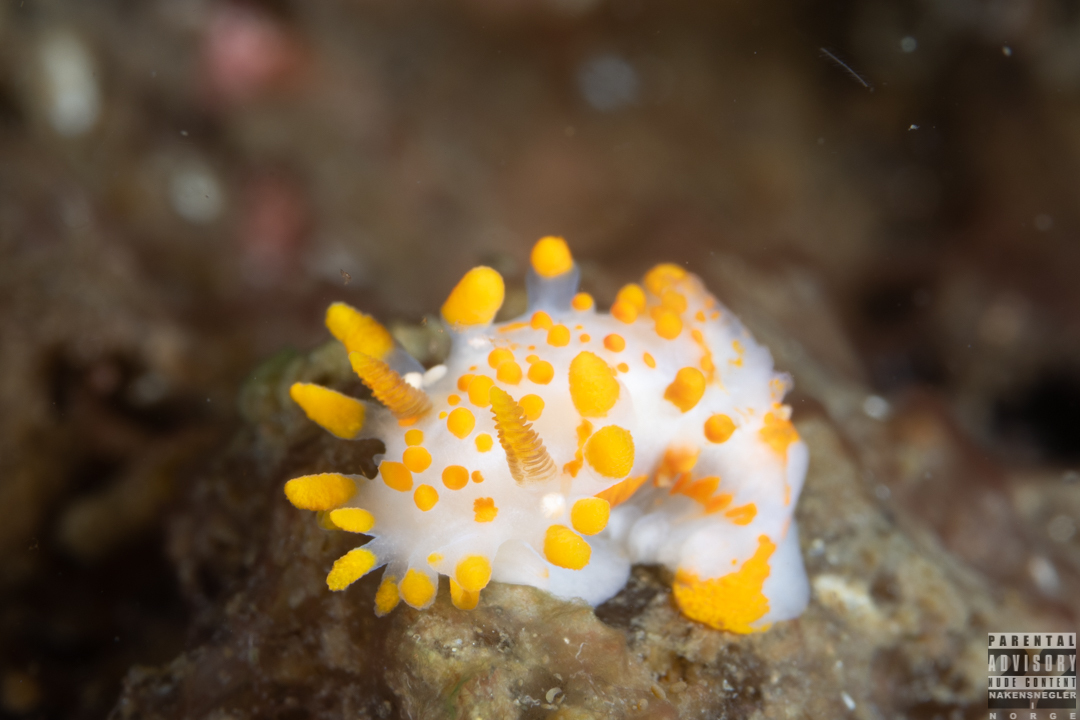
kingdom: Animalia
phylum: Mollusca
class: Gastropoda
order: Nudibranchia
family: Polyceridae
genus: Limacia
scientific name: Limacia clavigera
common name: Orange-clubbed sea slug
